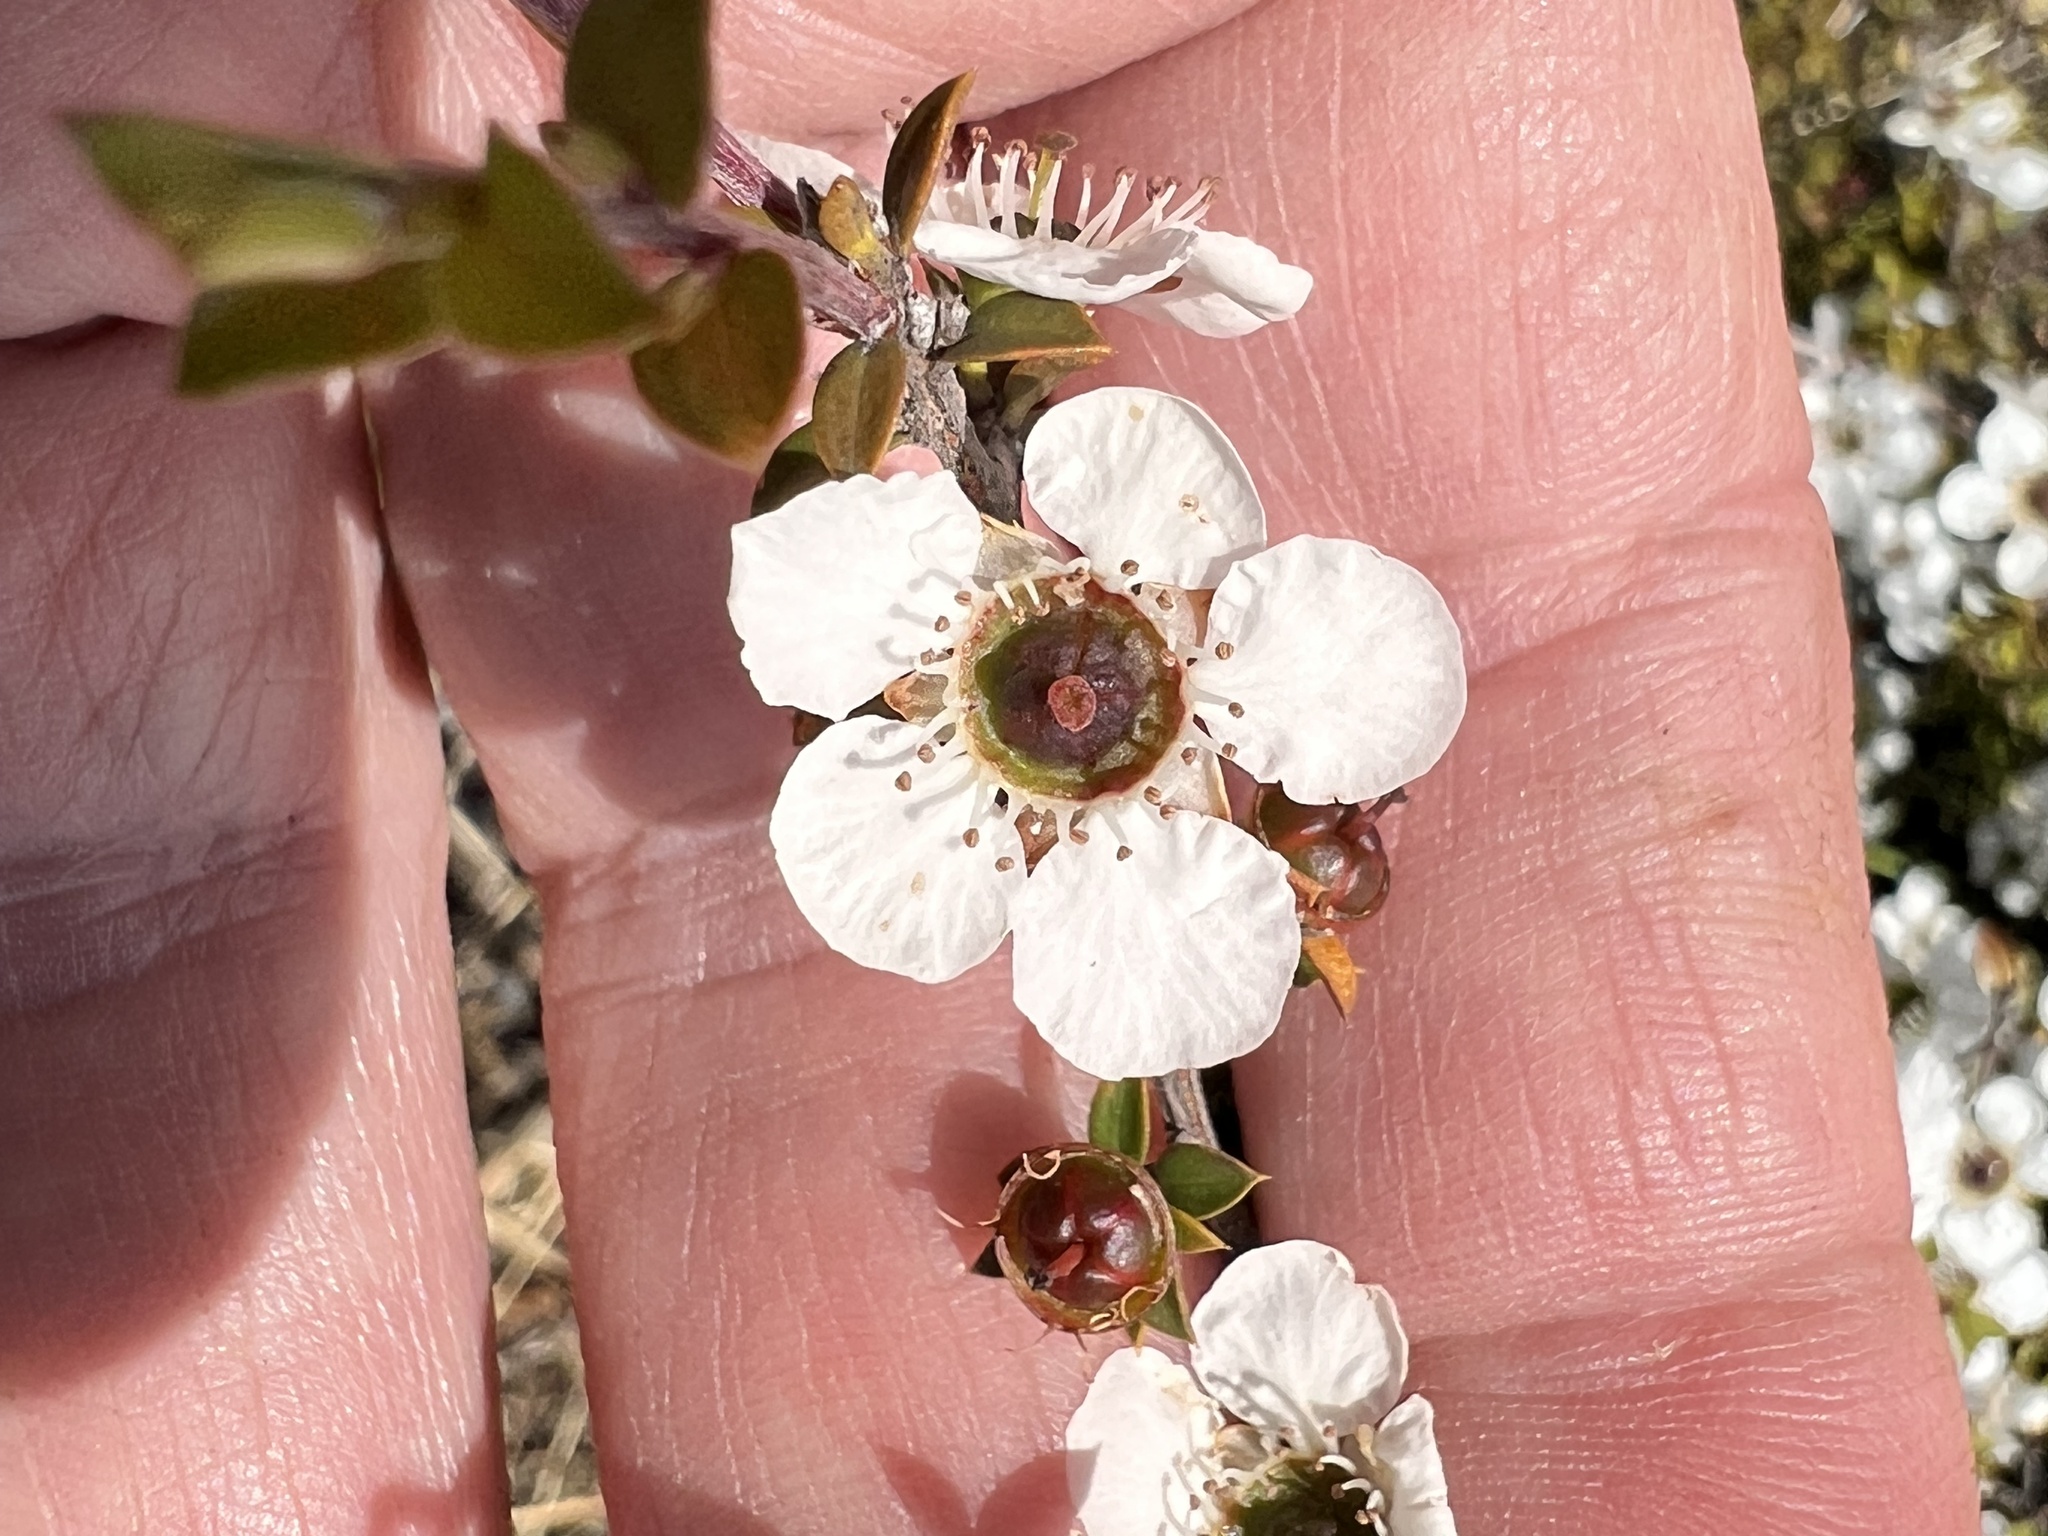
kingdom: Plantae
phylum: Tracheophyta
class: Magnoliopsida
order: Myrtales
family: Myrtaceae
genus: Leptospermum
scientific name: Leptospermum scoparium
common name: Broom tea-tree
